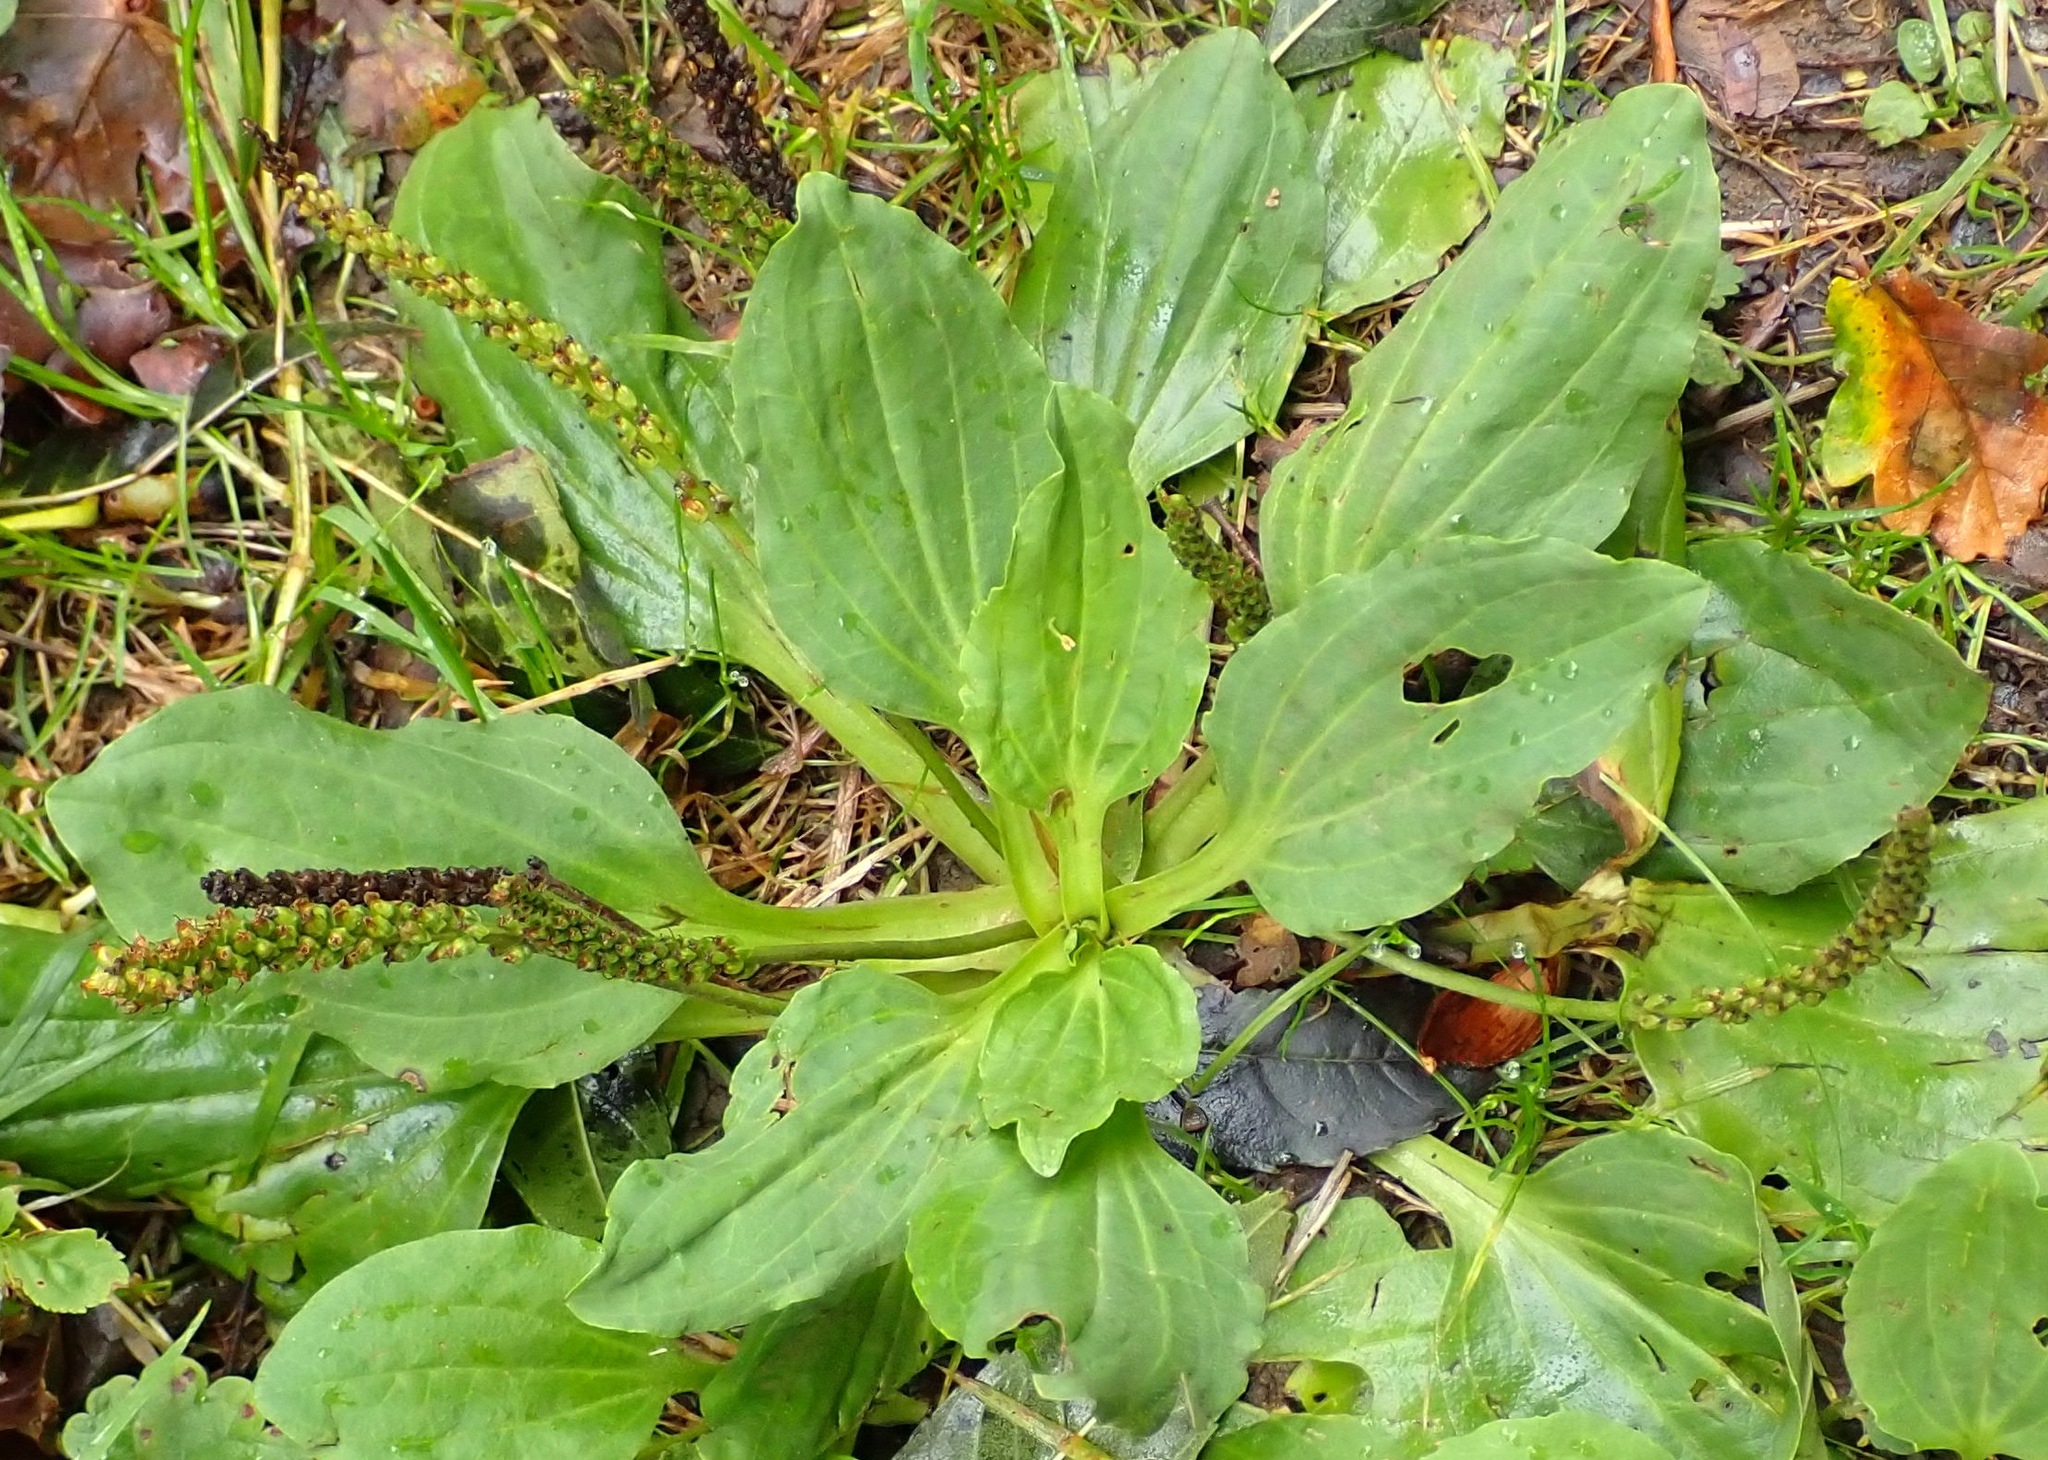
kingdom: Plantae
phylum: Tracheophyta
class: Magnoliopsida
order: Lamiales
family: Plantaginaceae
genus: Plantago
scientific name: Plantago major
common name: Common plantain
